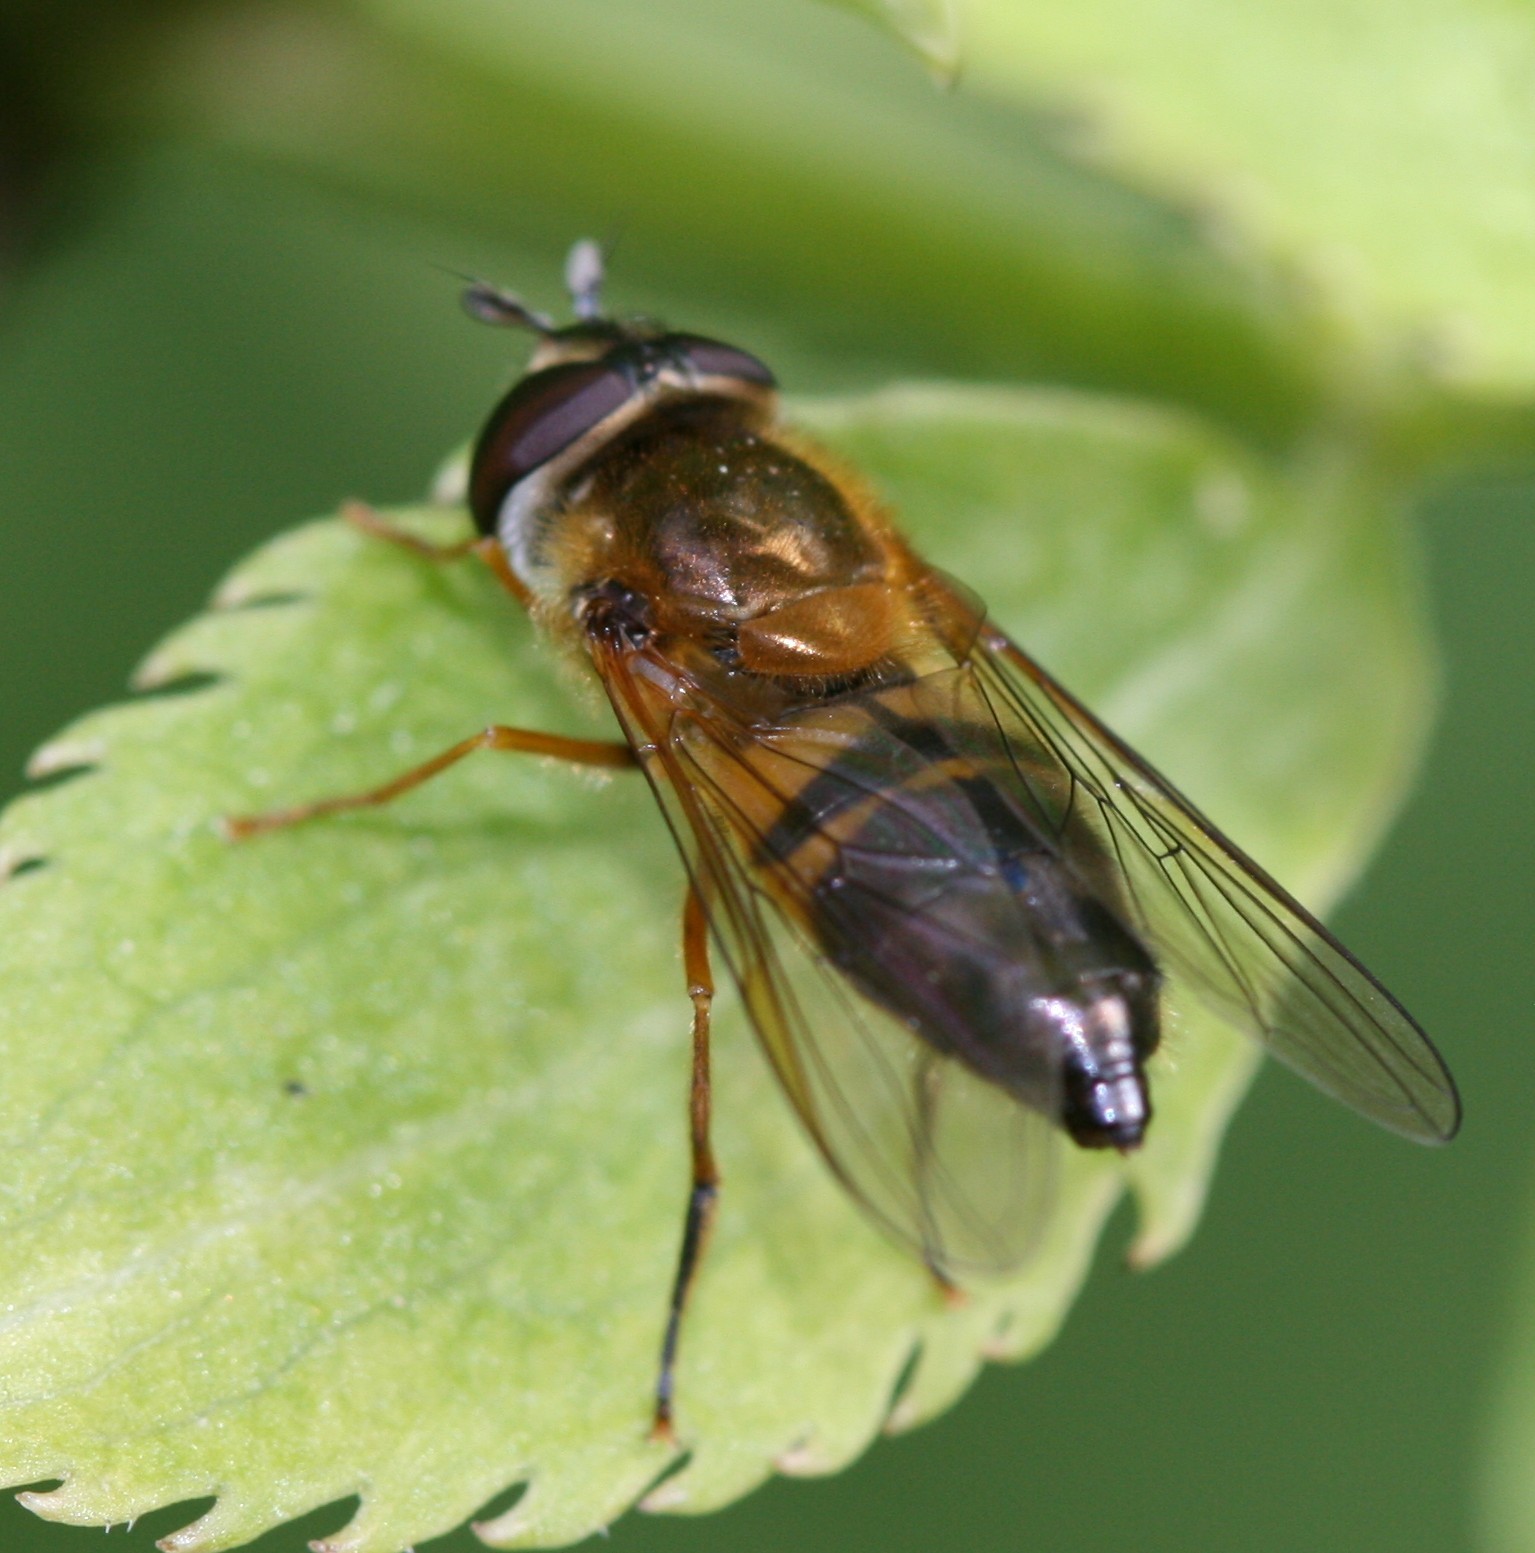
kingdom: Animalia
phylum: Arthropoda
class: Insecta
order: Diptera
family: Syrphidae
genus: Epistrophe
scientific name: Epistrophe eligans
